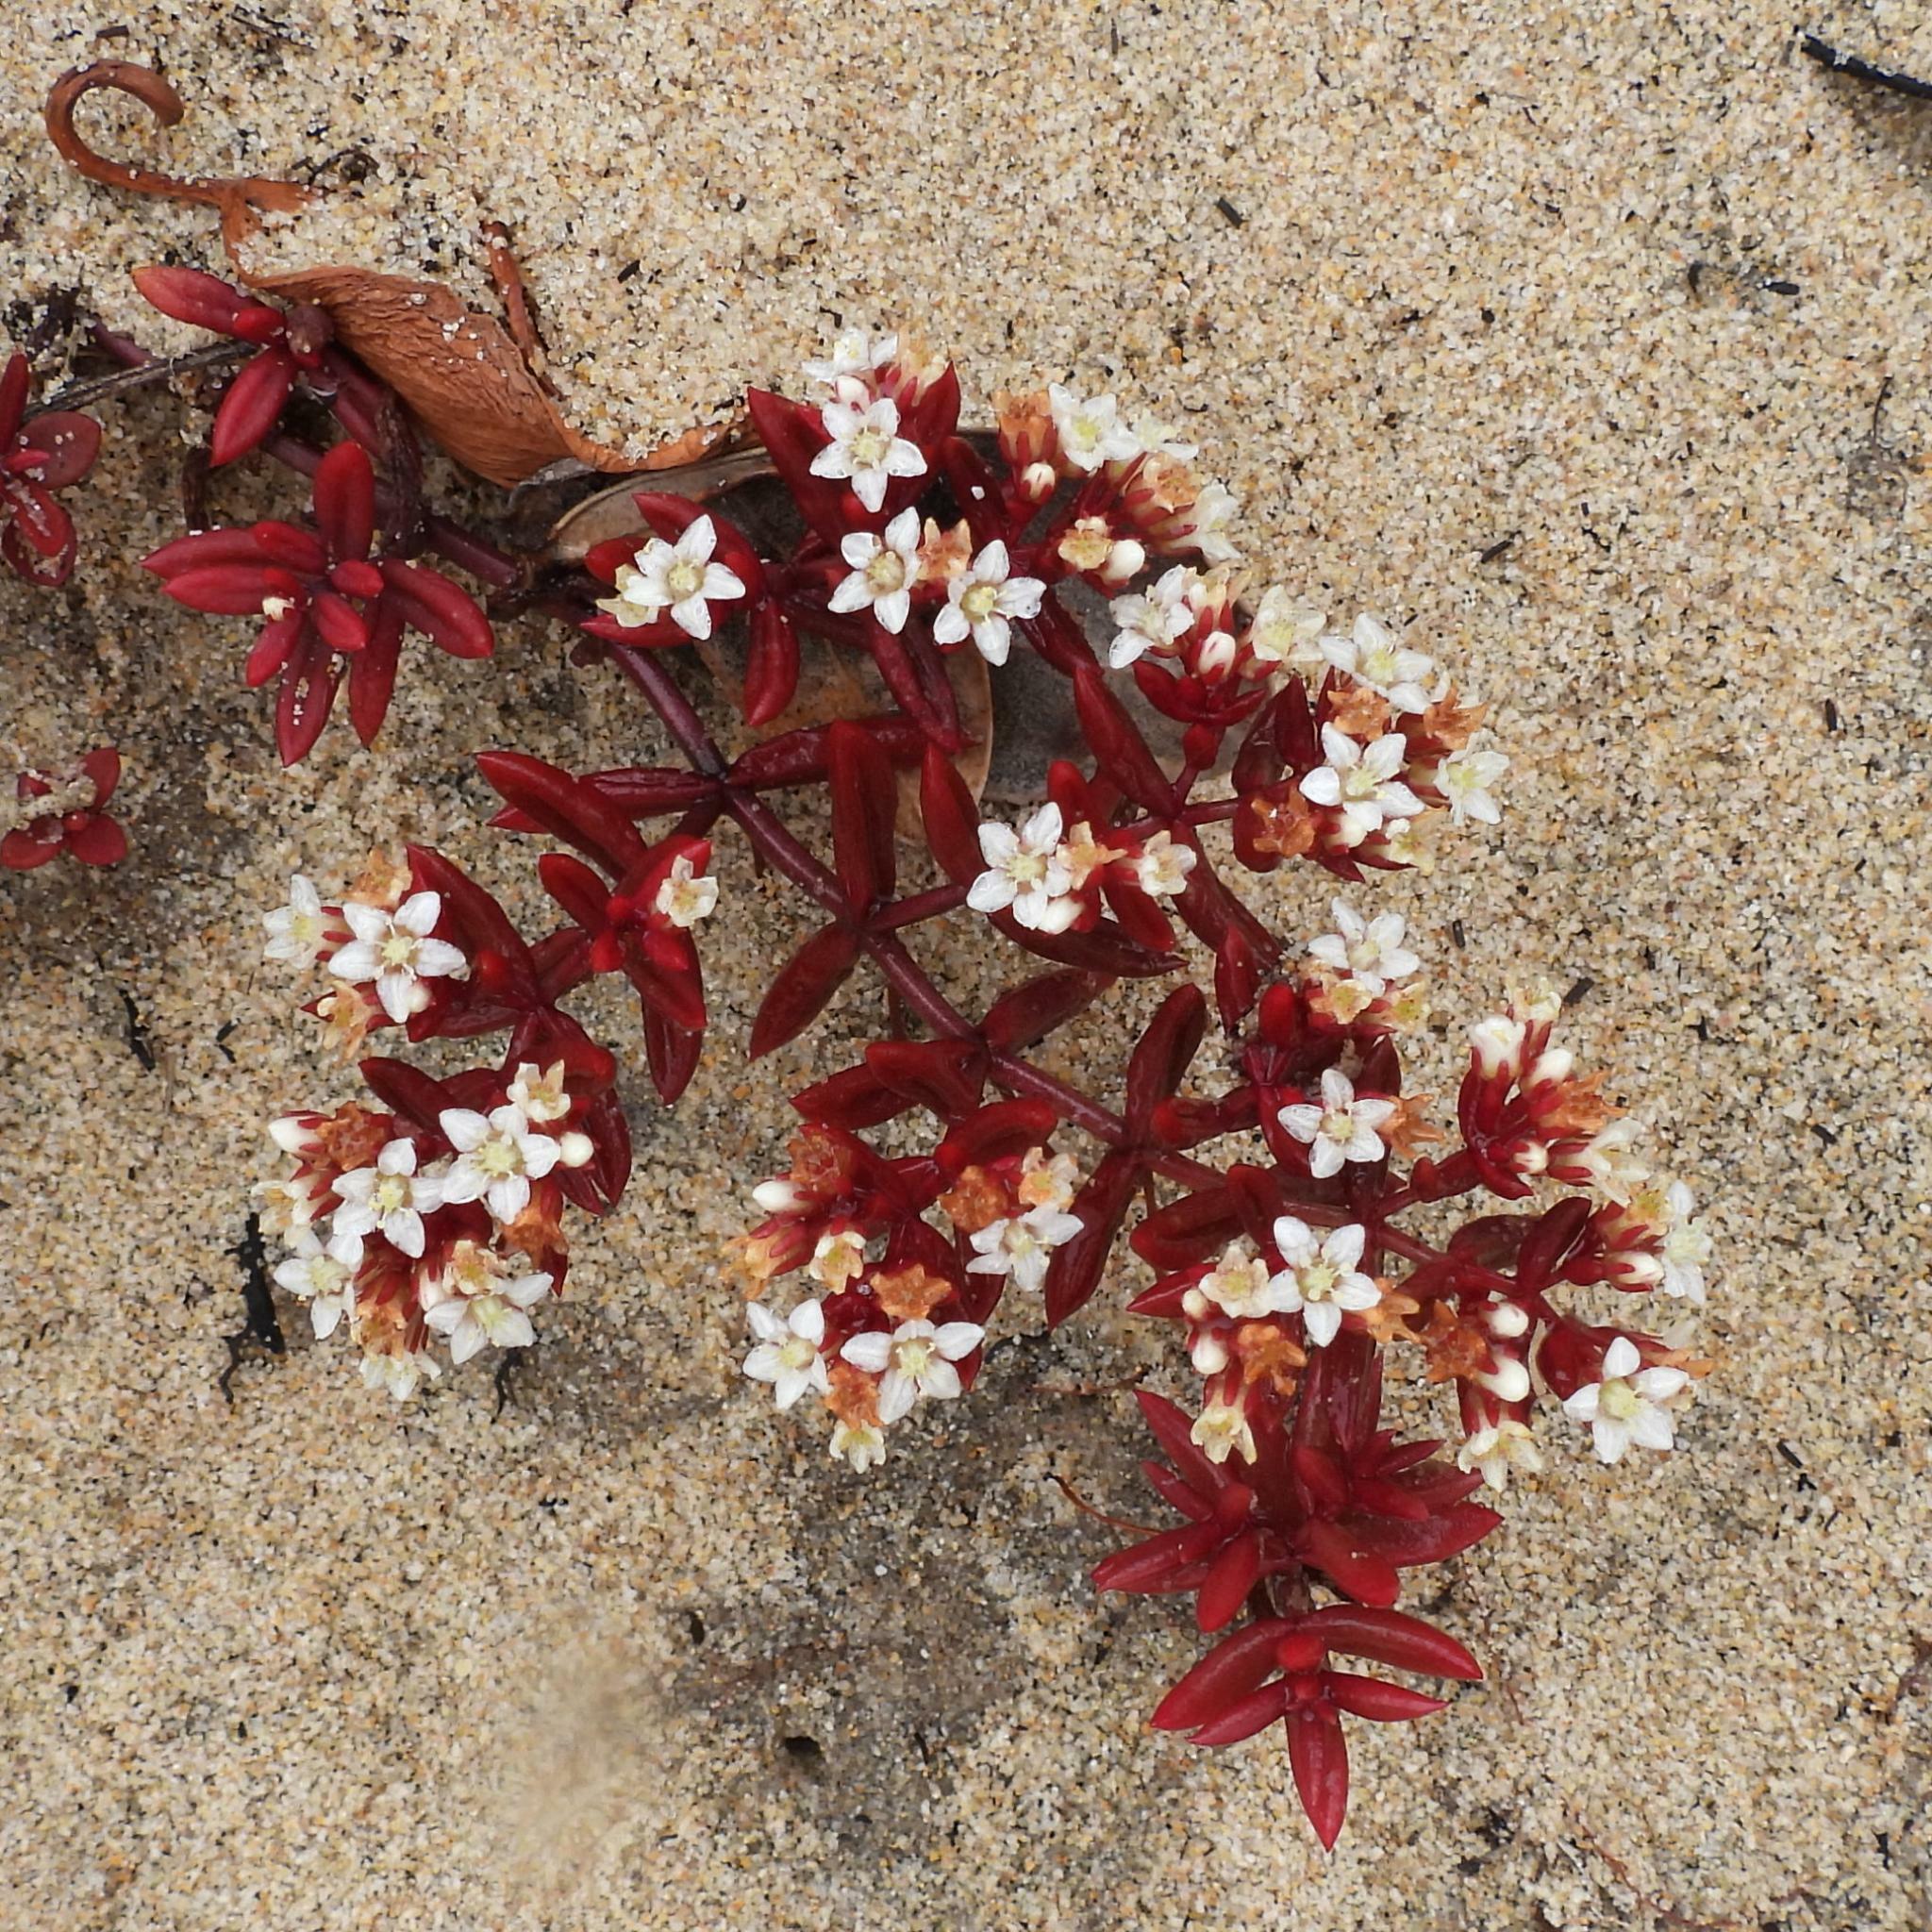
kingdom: Plantae
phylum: Tracheophyta
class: Magnoliopsida
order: Saxifragales
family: Crassulaceae
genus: Crassula
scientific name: Crassula expansa
